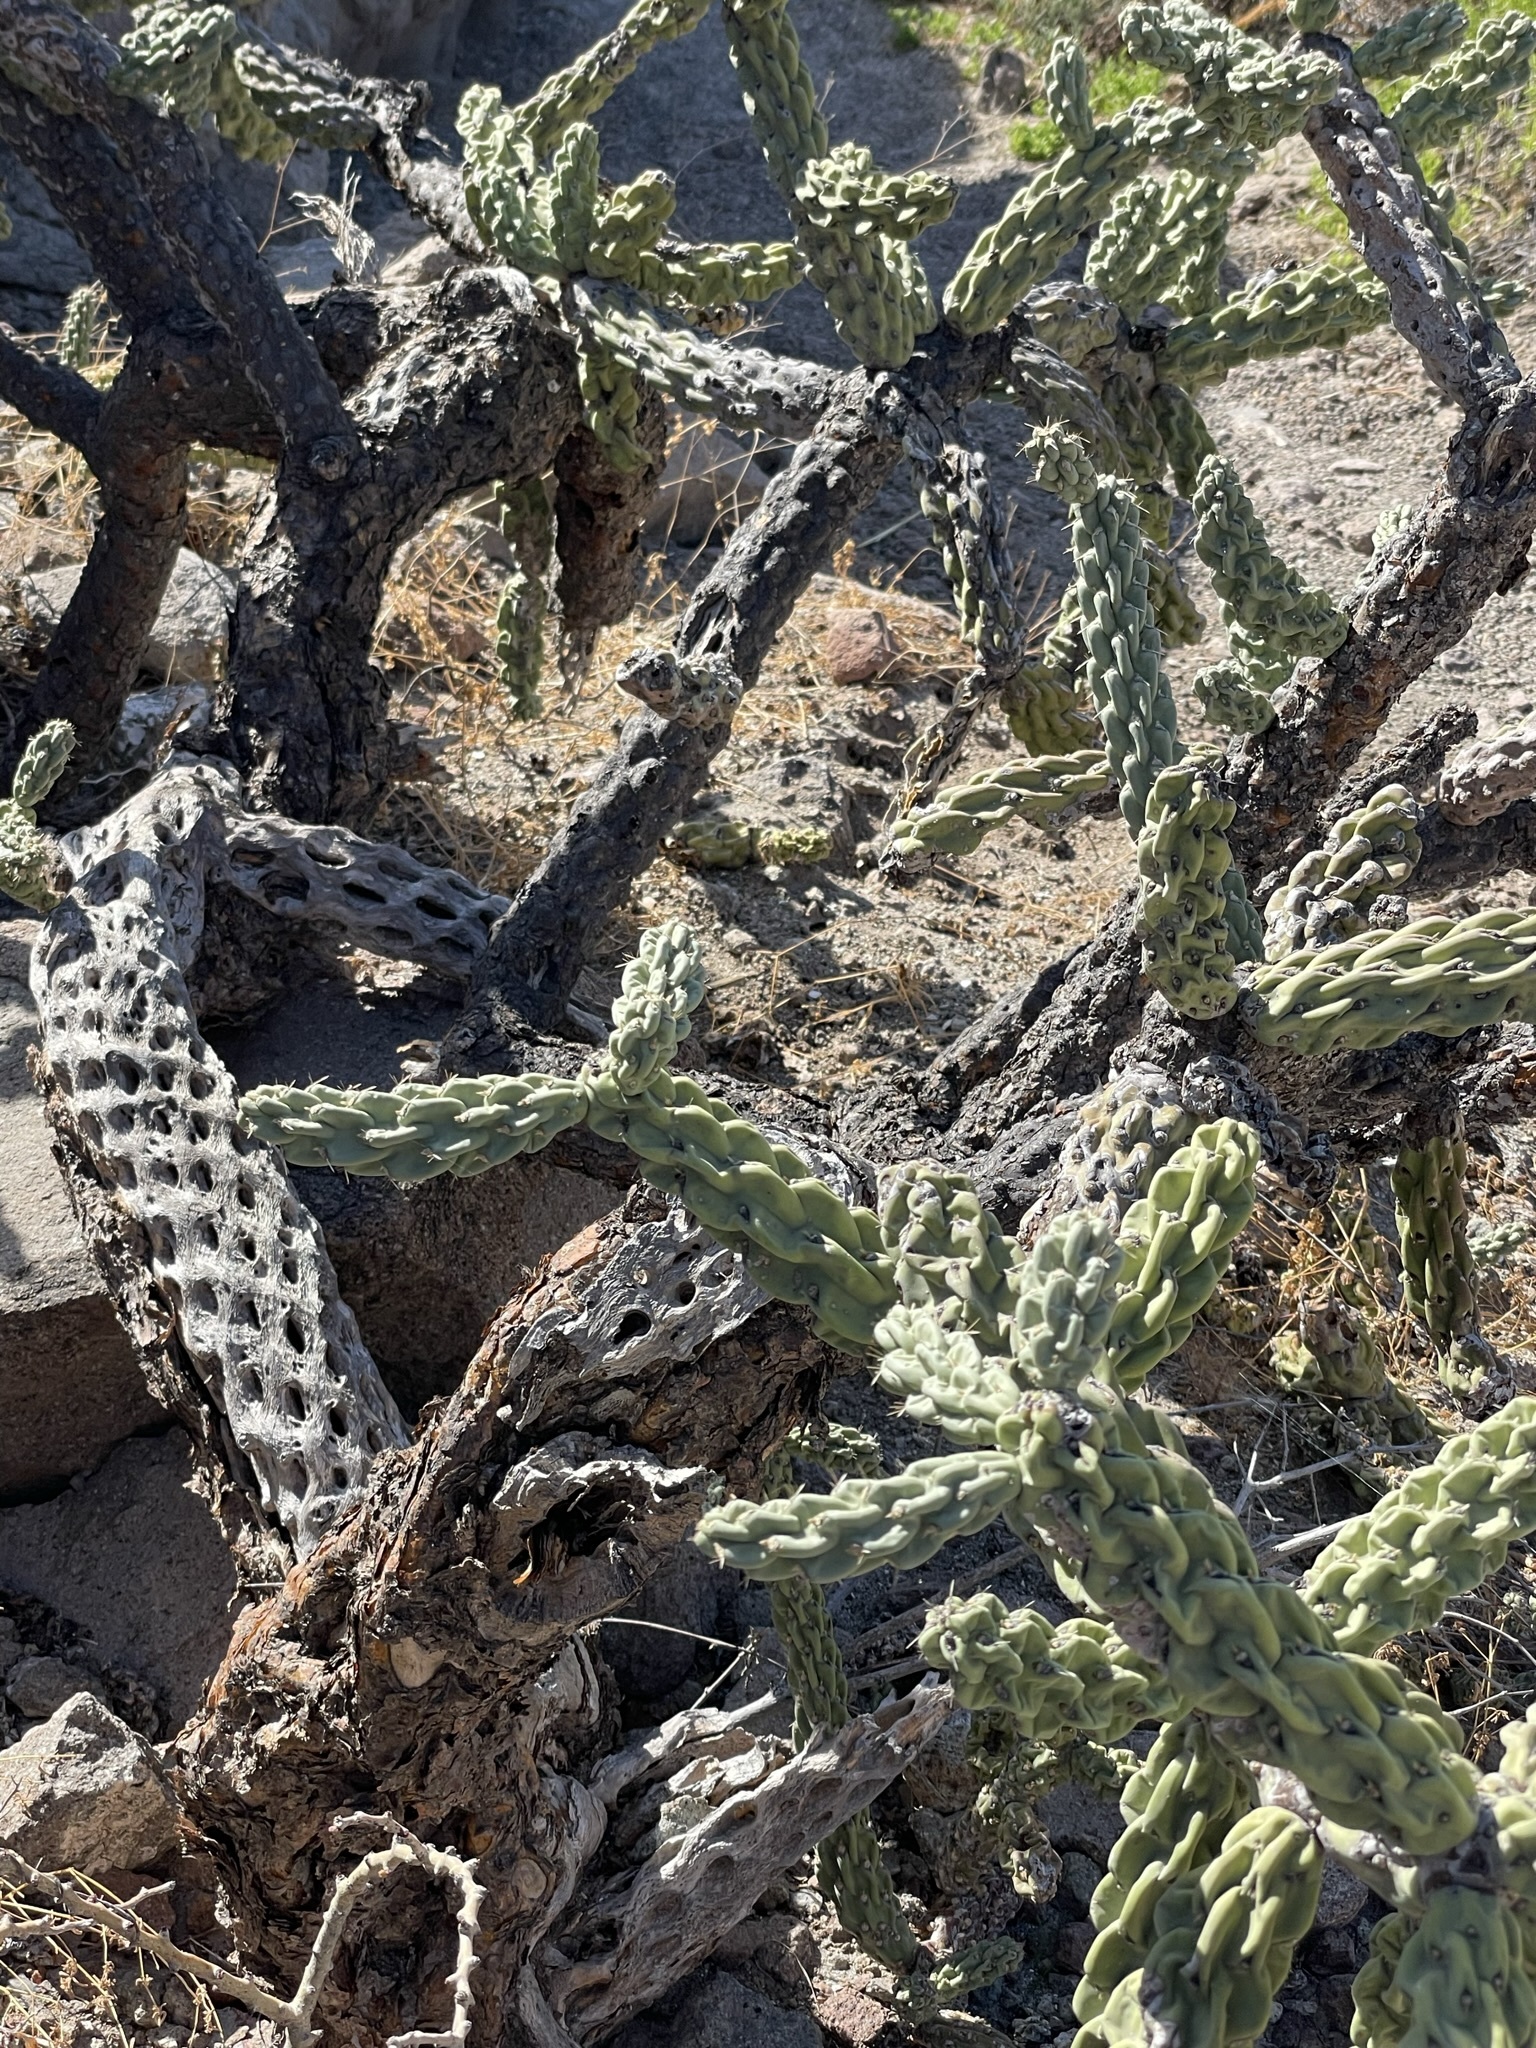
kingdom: Plantae
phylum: Tracheophyta
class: Magnoliopsida
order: Caryophyllales
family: Cactaceae
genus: Cylindropuntia
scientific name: Cylindropuntia cholla
